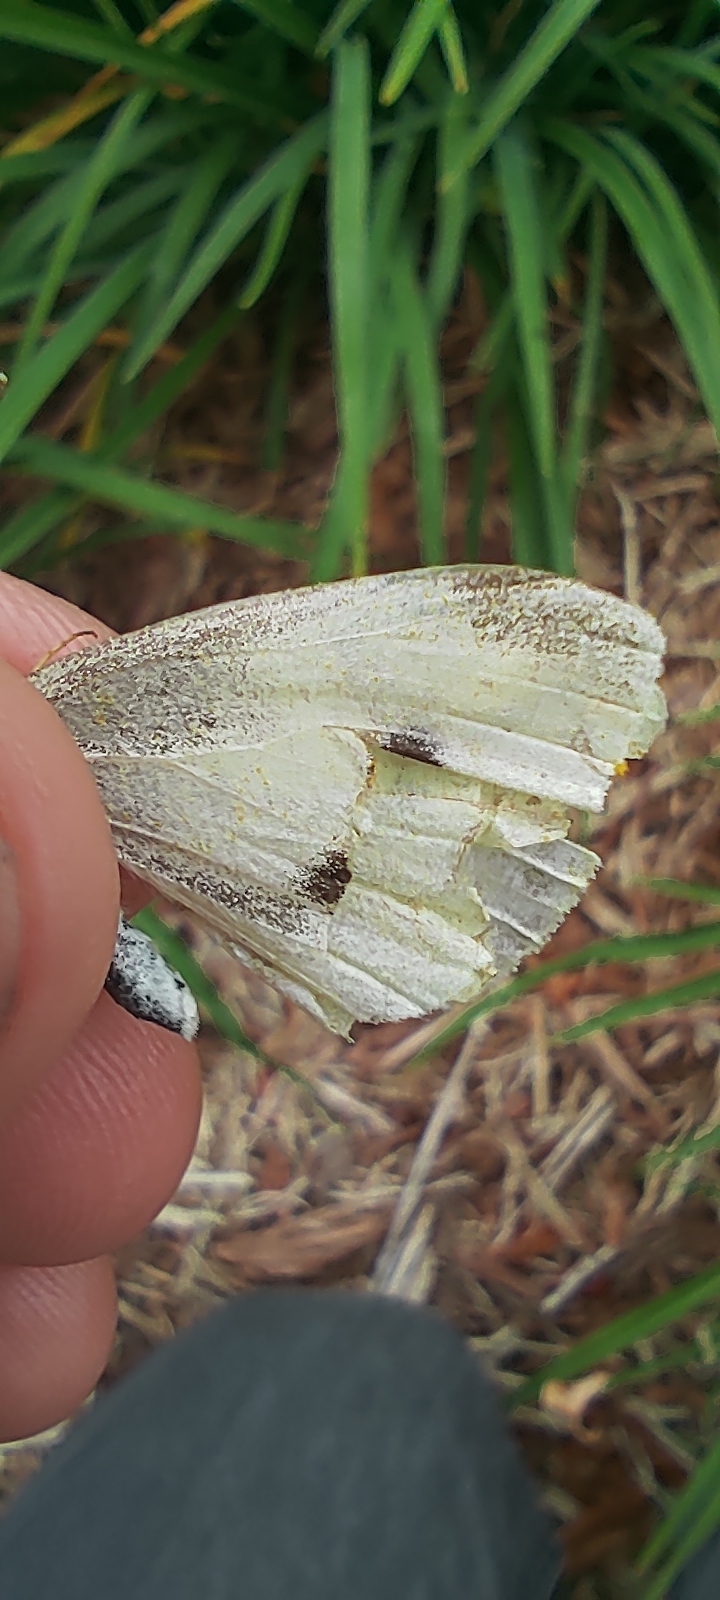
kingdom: Animalia
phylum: Arthropoda
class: Insecta
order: Lepidoptera
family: Pieridae
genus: Pieris
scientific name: Pieris rapae
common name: Small white
